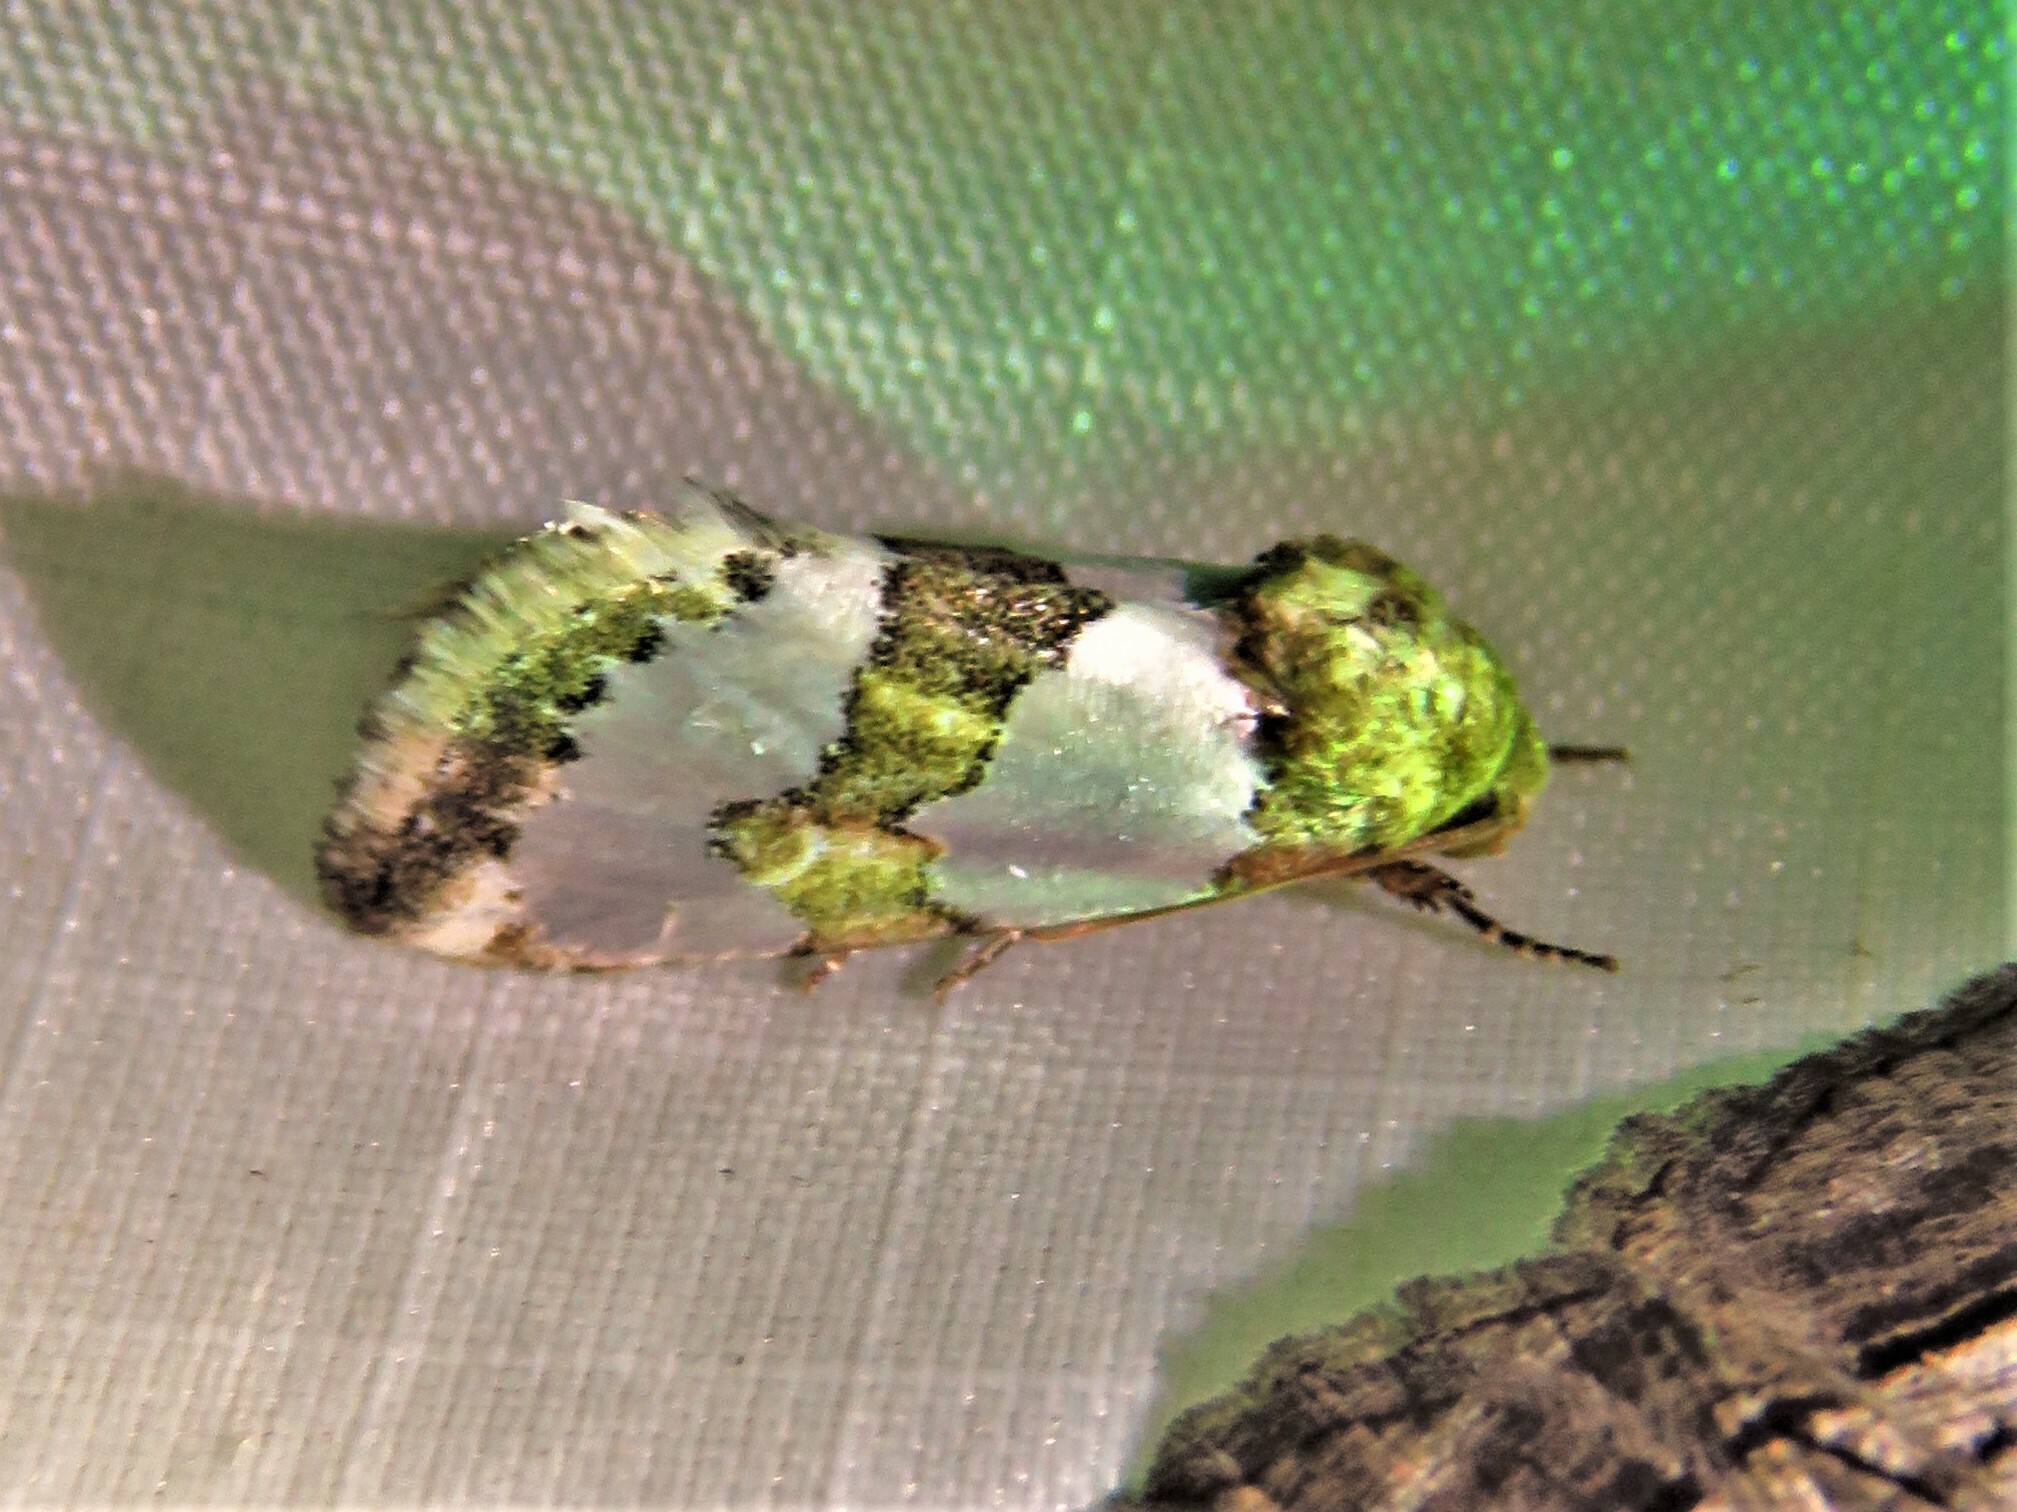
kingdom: Animalia
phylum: Arthropoda
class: Insecta
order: Lepidoptera
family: Noctuidae
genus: Schinia
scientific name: Schinia chrysellus
